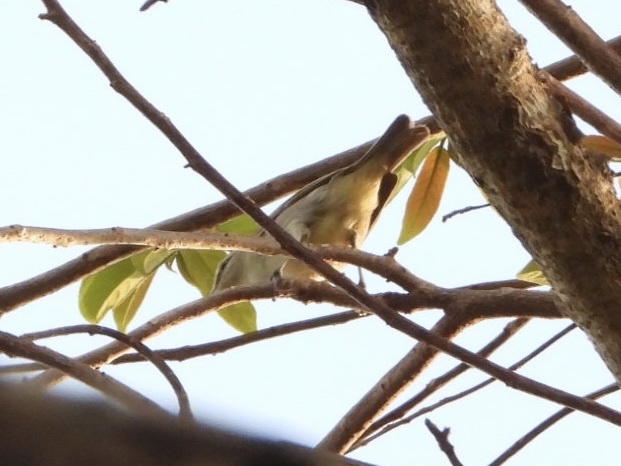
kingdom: Animalia
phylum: Chordata
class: Aves
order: Passeriformes
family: Vireonidae
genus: Vireo
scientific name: Vireo magister
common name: Yucatan vireo
